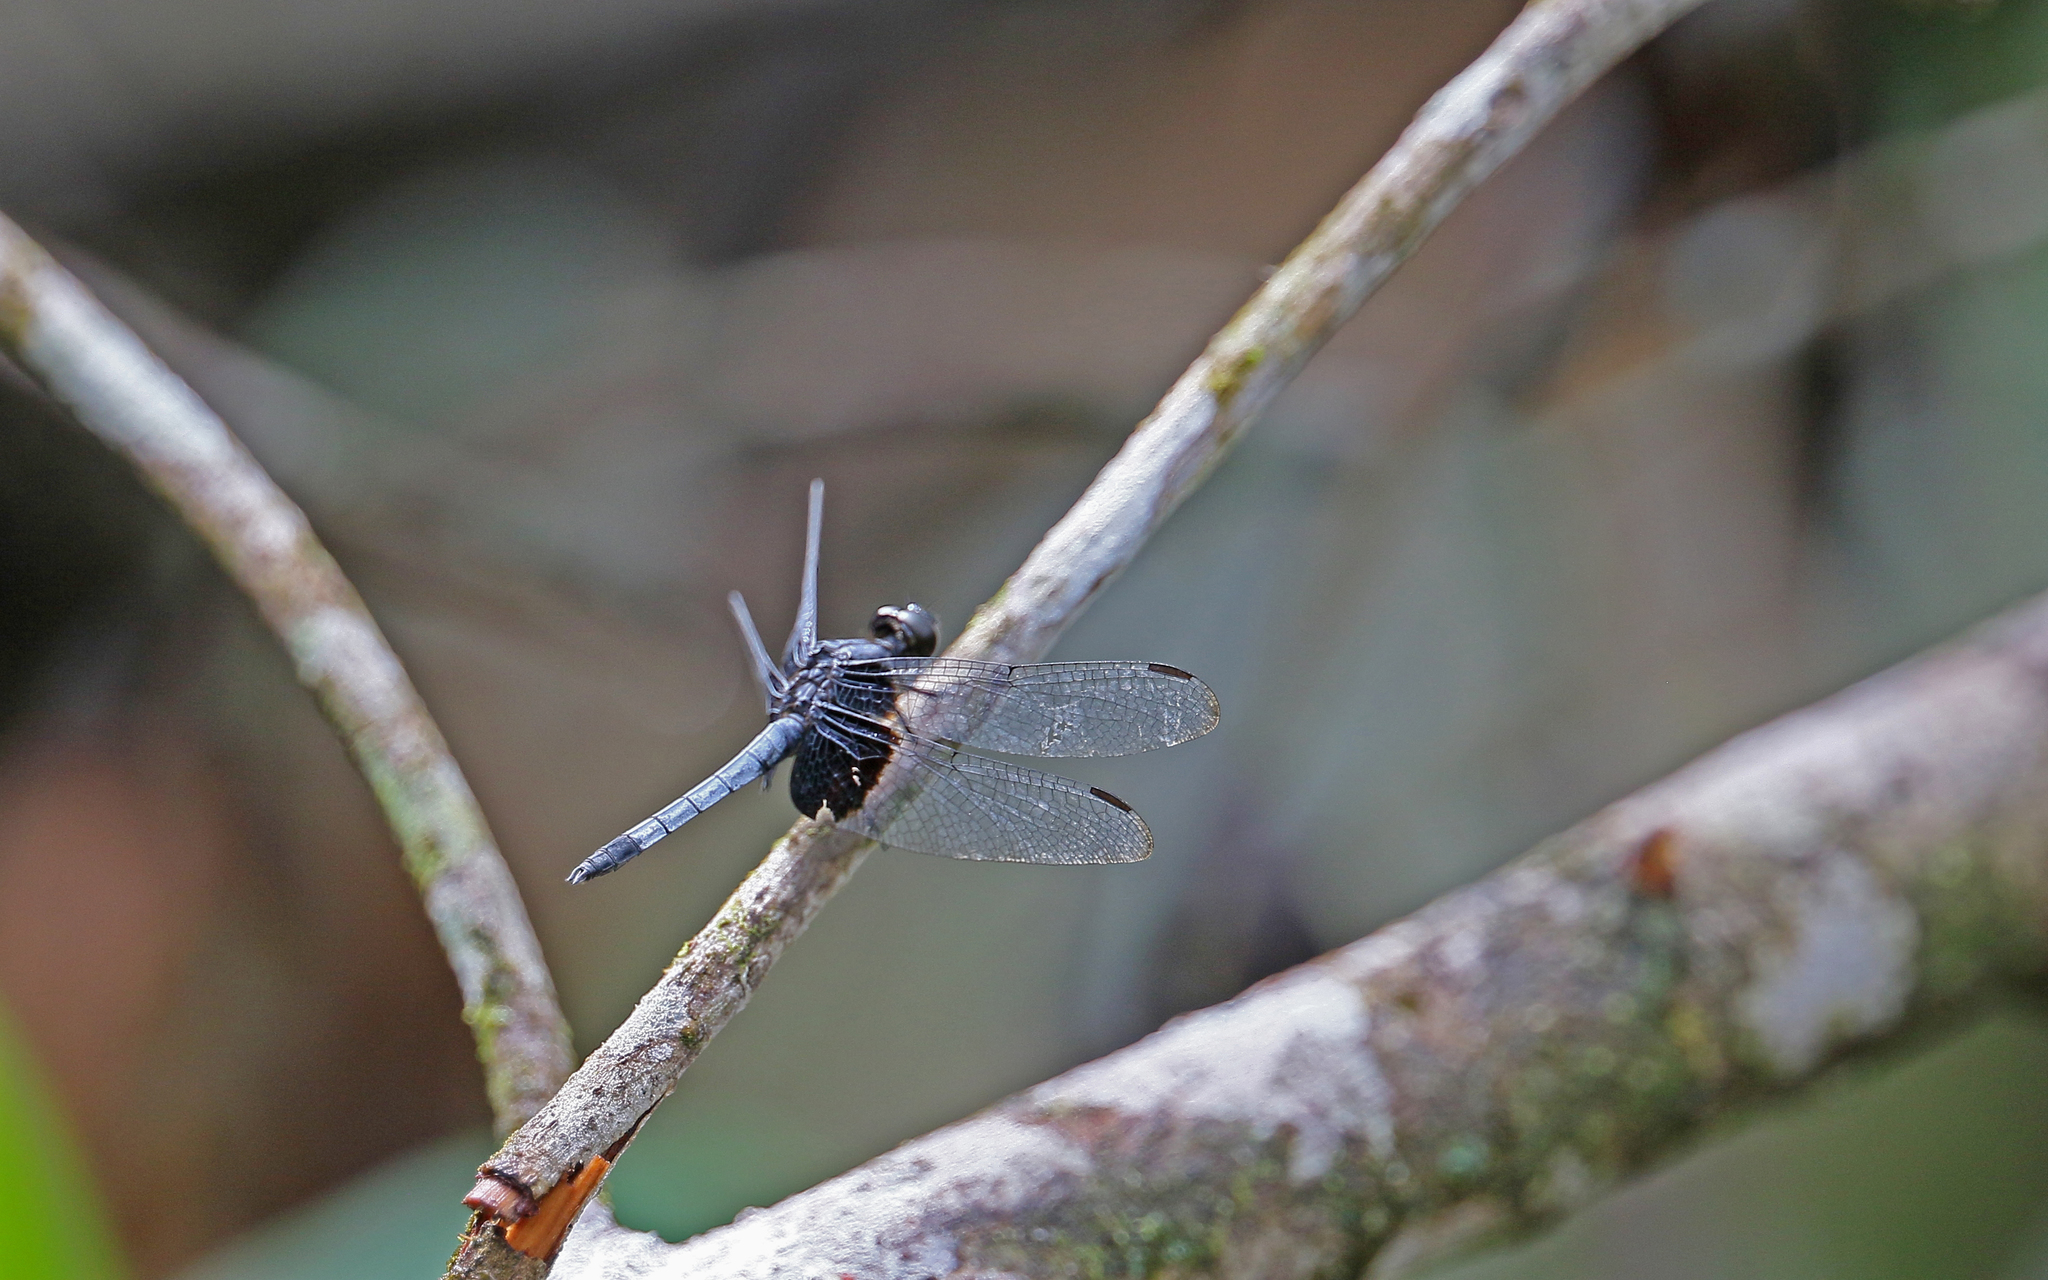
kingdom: Animalia
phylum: Arthropoda
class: Insecta
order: Odonata
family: Libellulidae
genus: Erythrodiplax
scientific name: Erythrodiplax unimaculata
